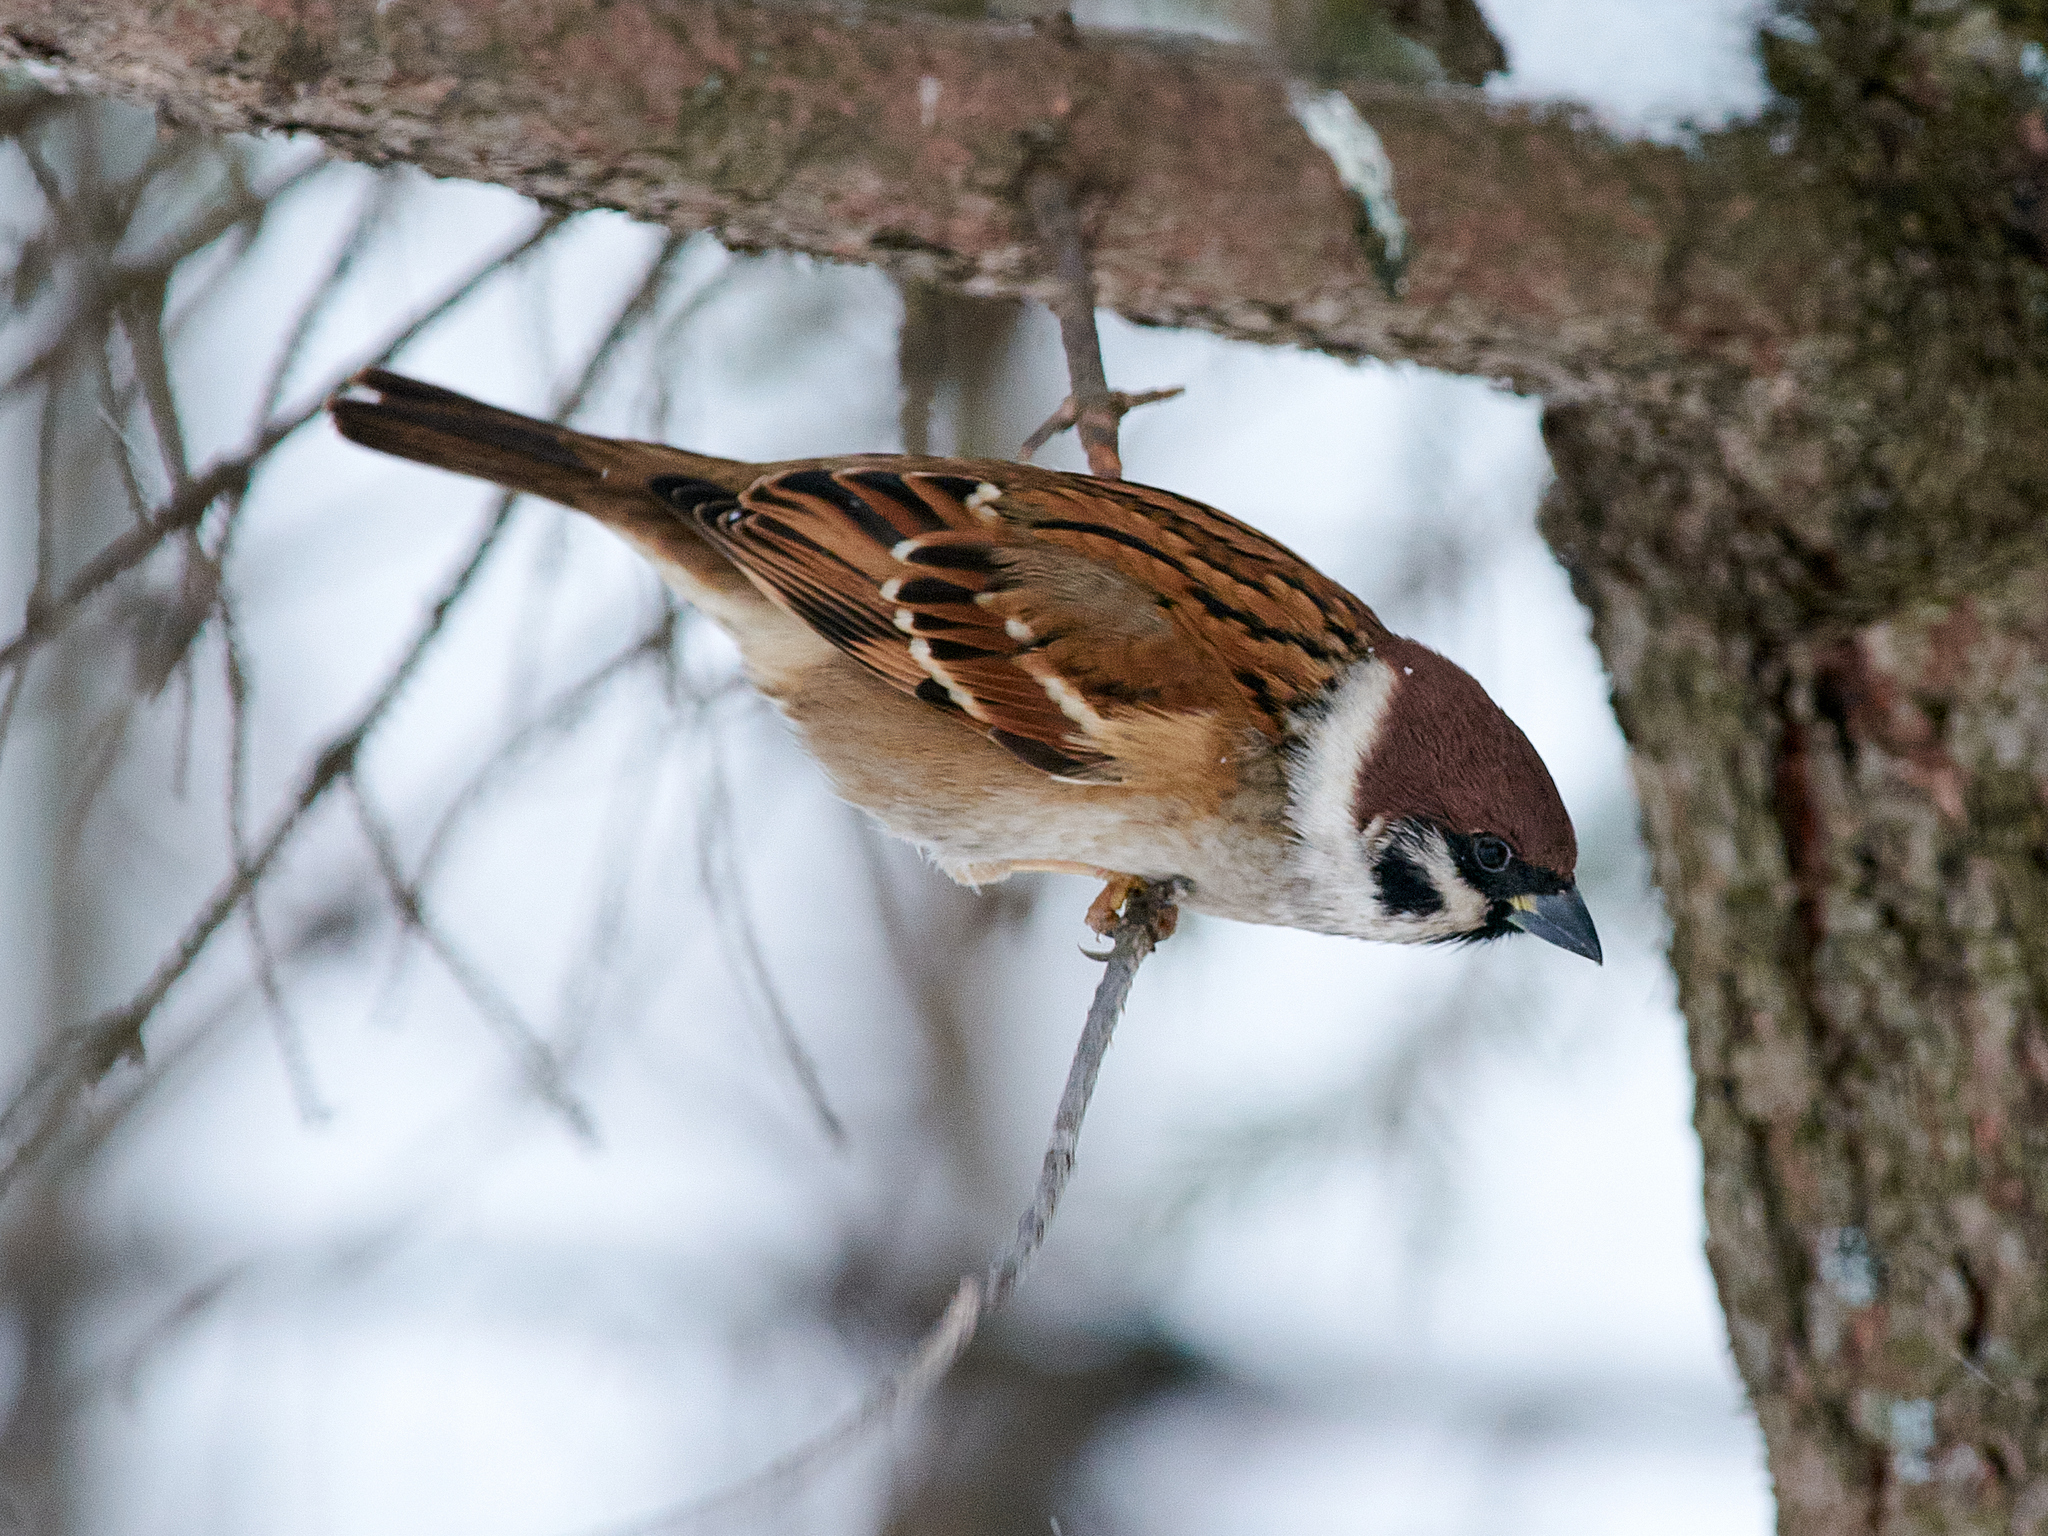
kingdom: Animalia
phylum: Chordata
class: Aves
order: Passeriformes
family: Passeridae
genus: Passer
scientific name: Passer montanus
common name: Eurasian tree sparrow
